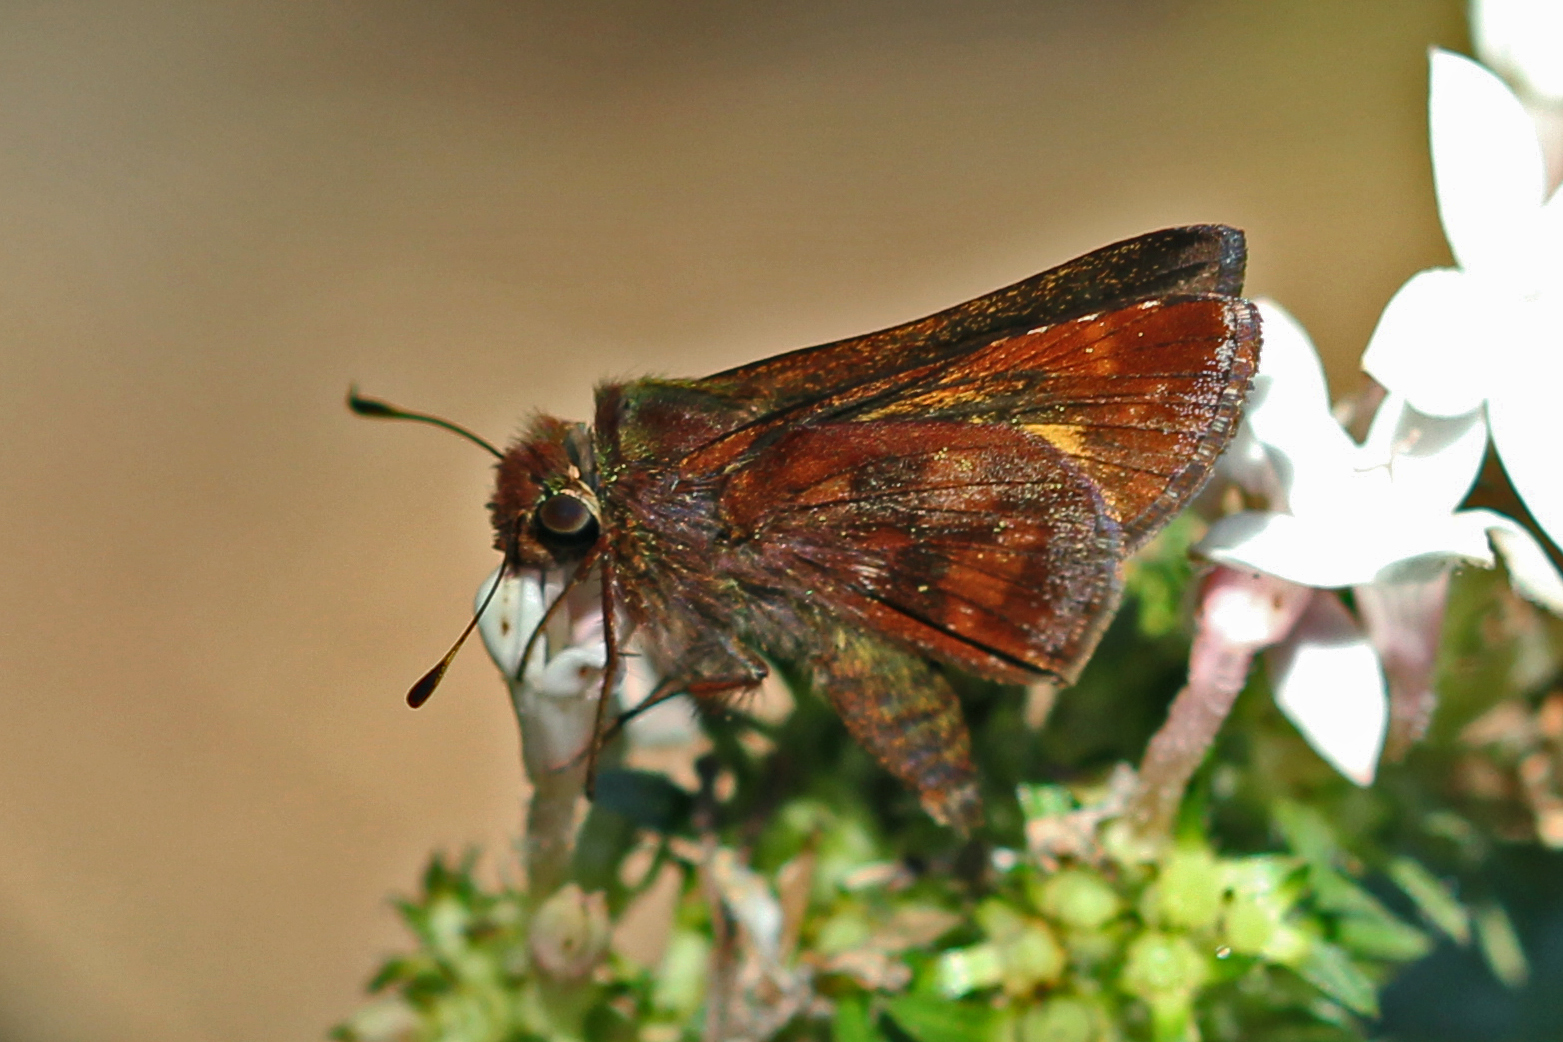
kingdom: Animalia
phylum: Arthropoda
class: Insecta
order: Lepidoptera
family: Hesperiidae
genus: Lon
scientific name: Lon inimica
